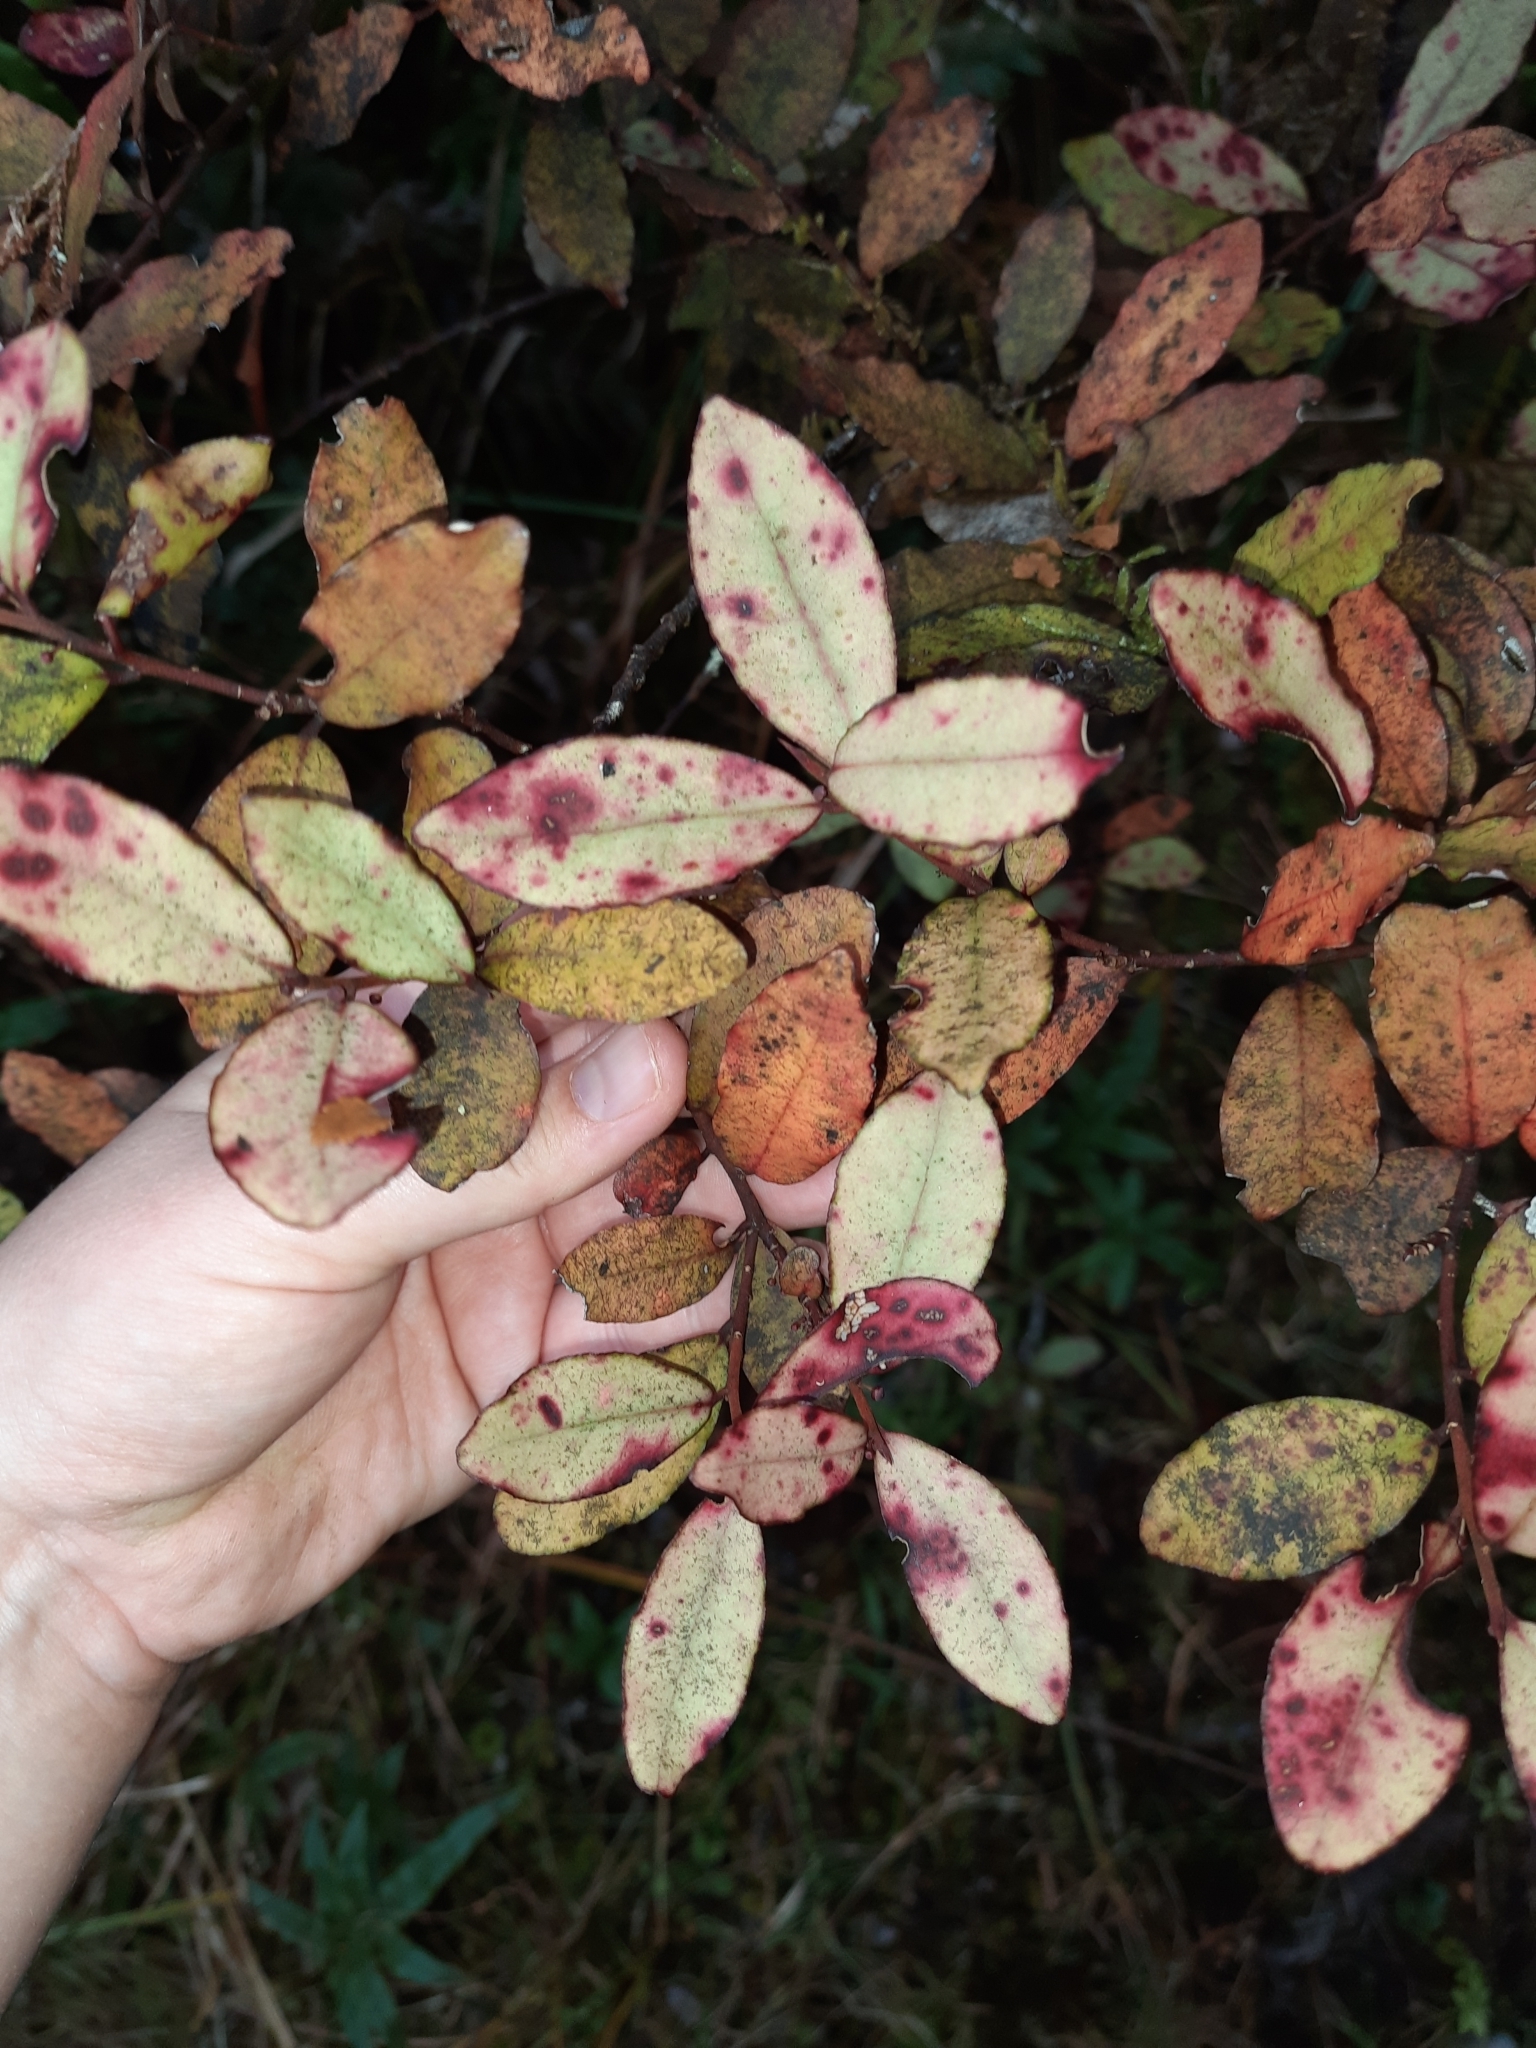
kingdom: Plantae
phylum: Tracheophyta
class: Magnoliopsida
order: Canellales
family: Winteraceae
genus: Pseudowintera
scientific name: Pseudowintera colorata
